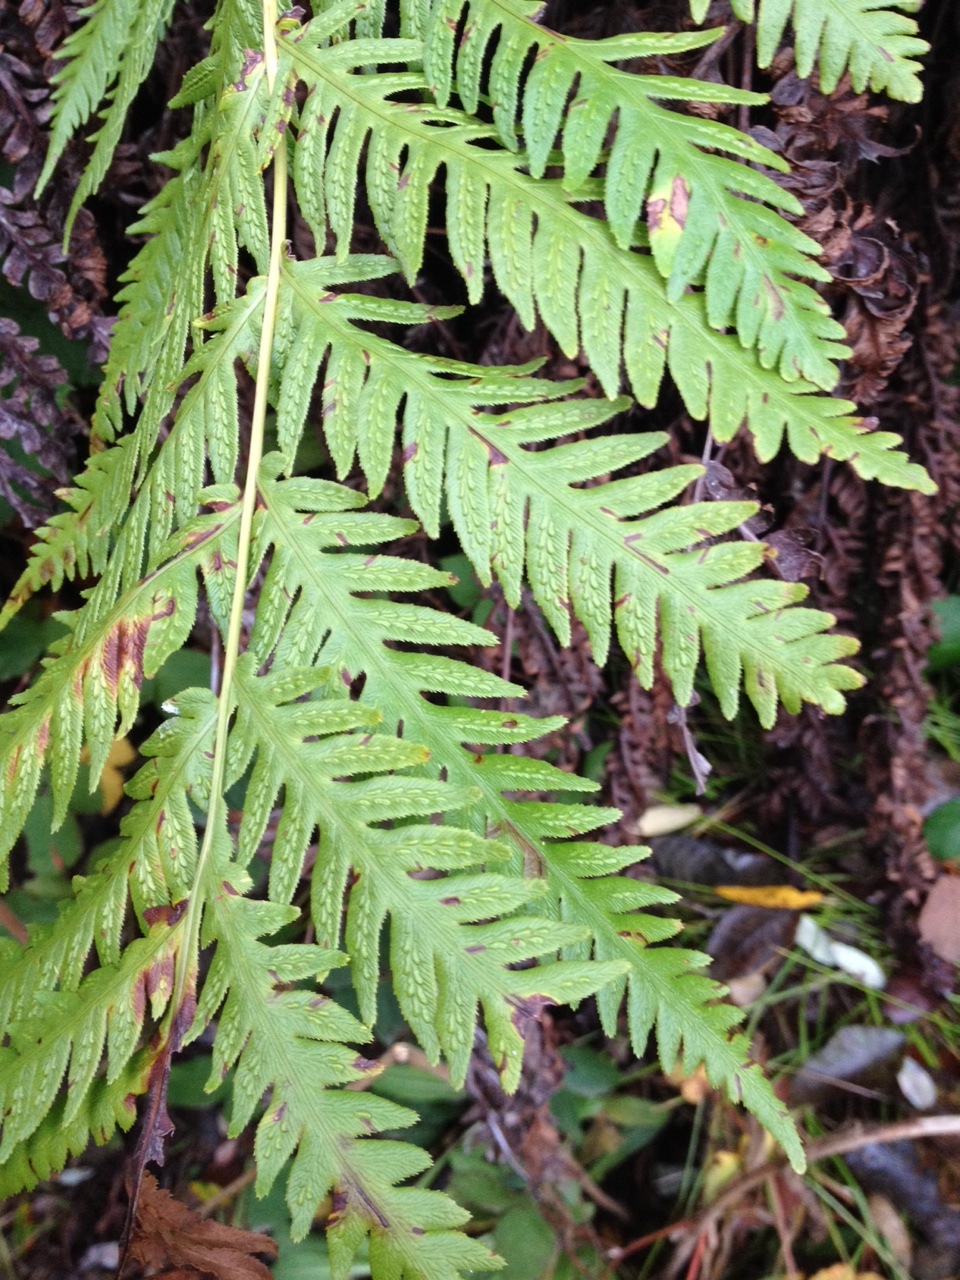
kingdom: Plantae
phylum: Tracheophyta
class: Polypodiopsida
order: Polypodiales
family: Blechnaceae
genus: Woodwardia
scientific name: Woodwardia fimbriata
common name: Giant chain fern
